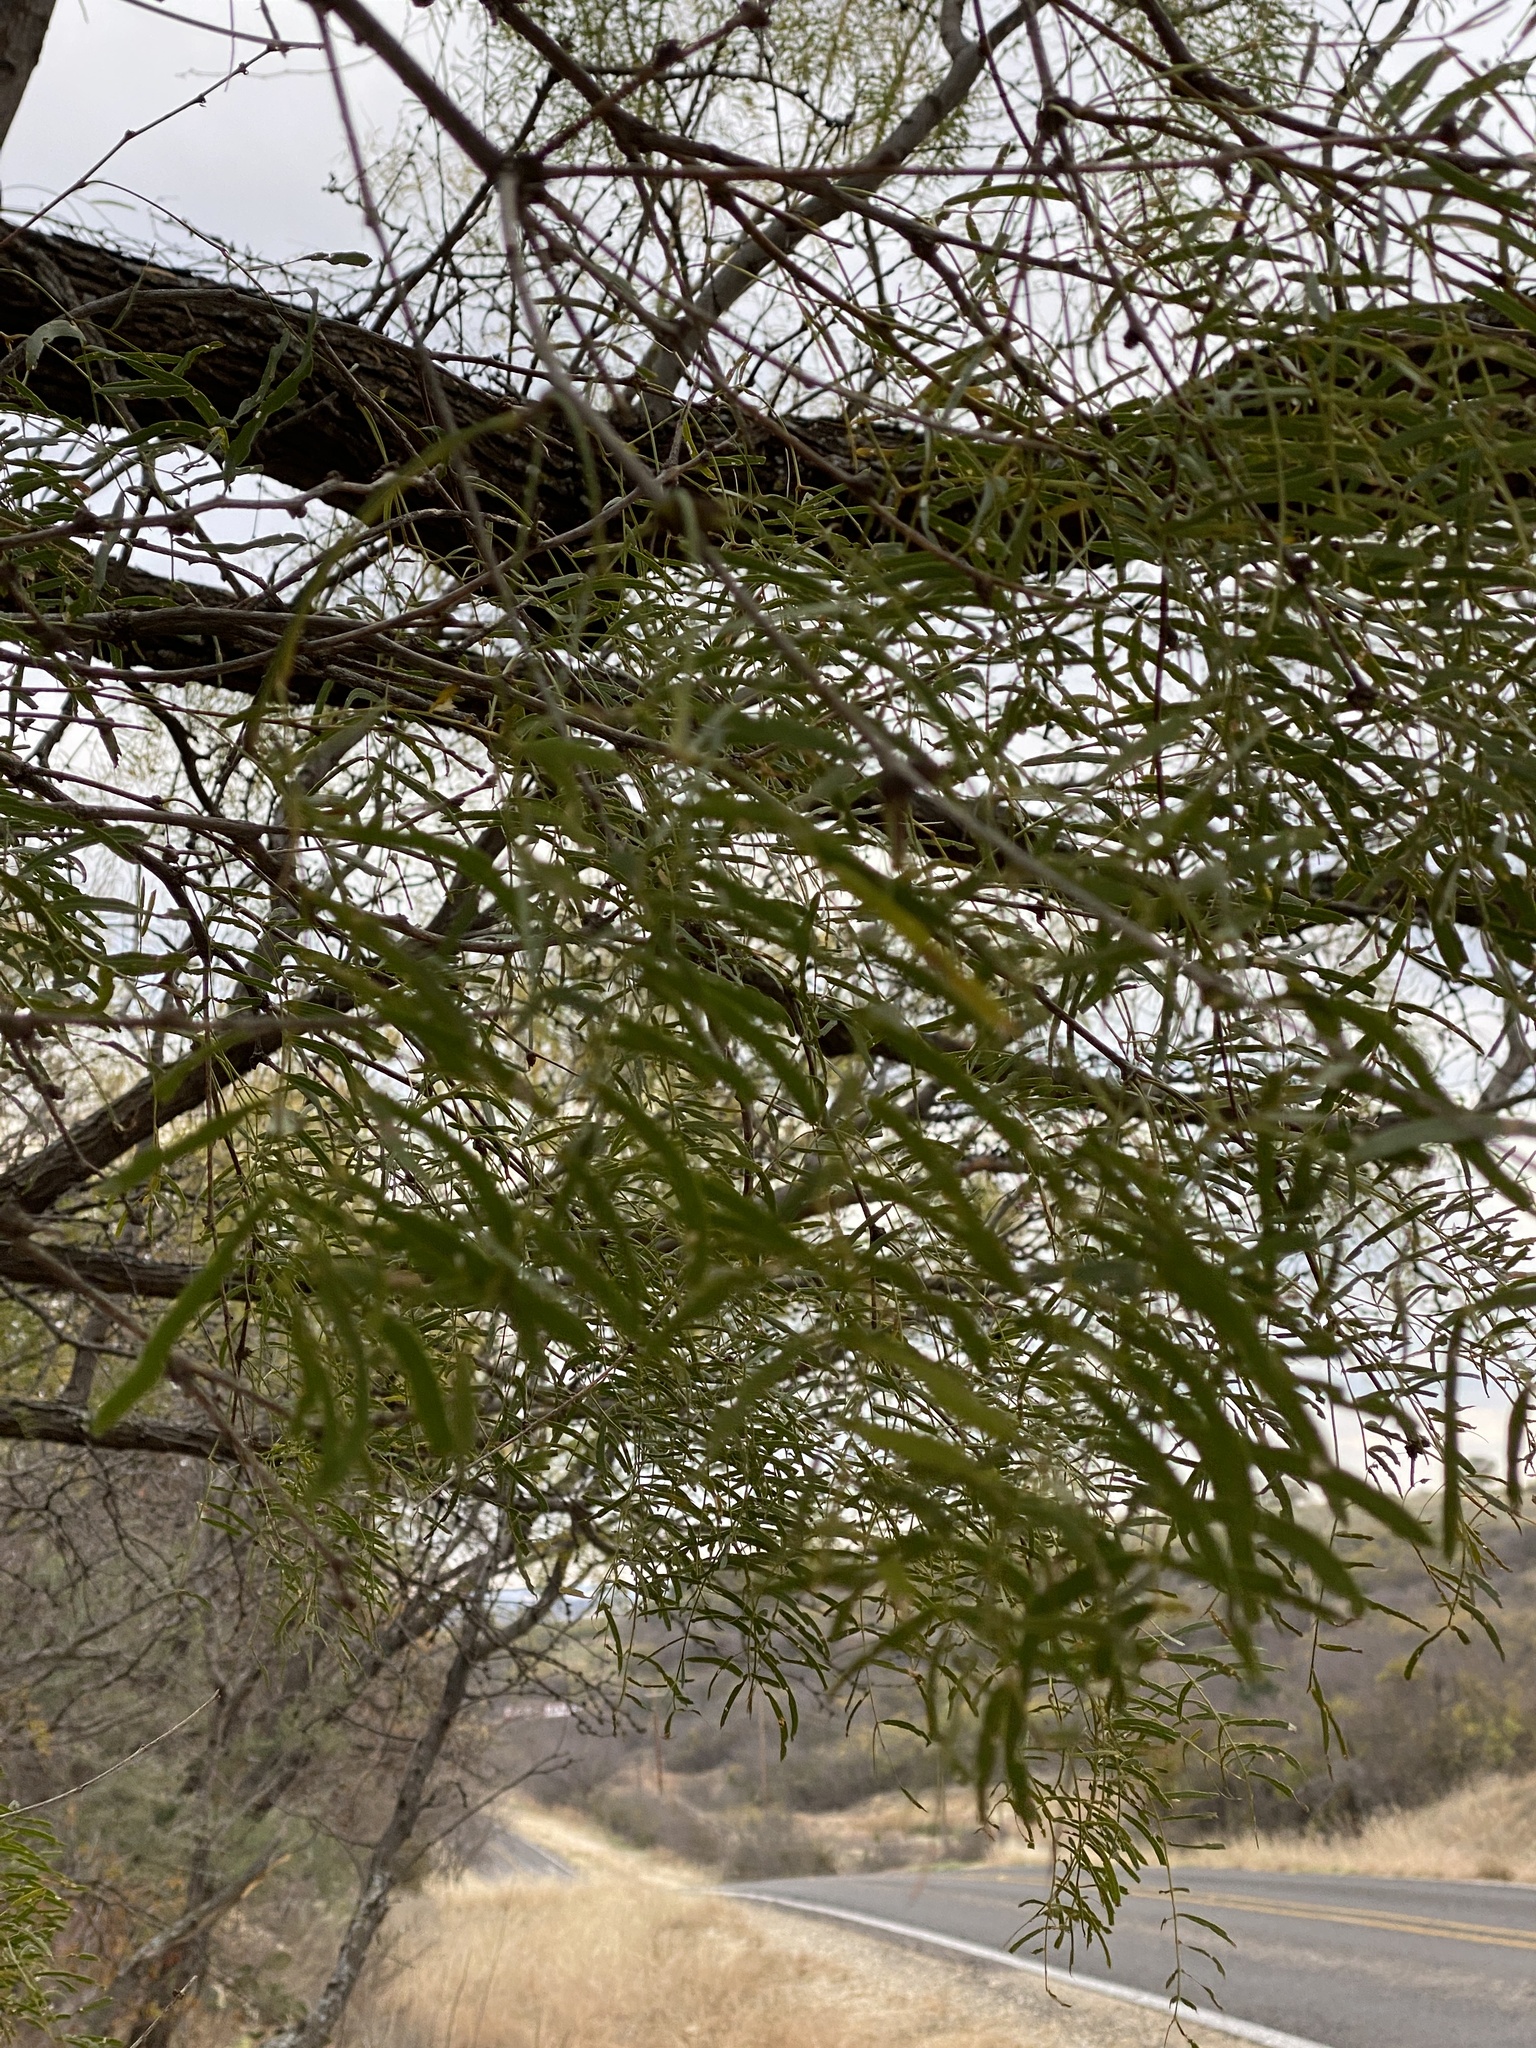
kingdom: Plantae
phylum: Tracheophyta
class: Magnoliopsida
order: Fabales
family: Fabaceae
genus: Prosopis
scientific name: Prosopis glandulosa
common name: Honey mesquite
